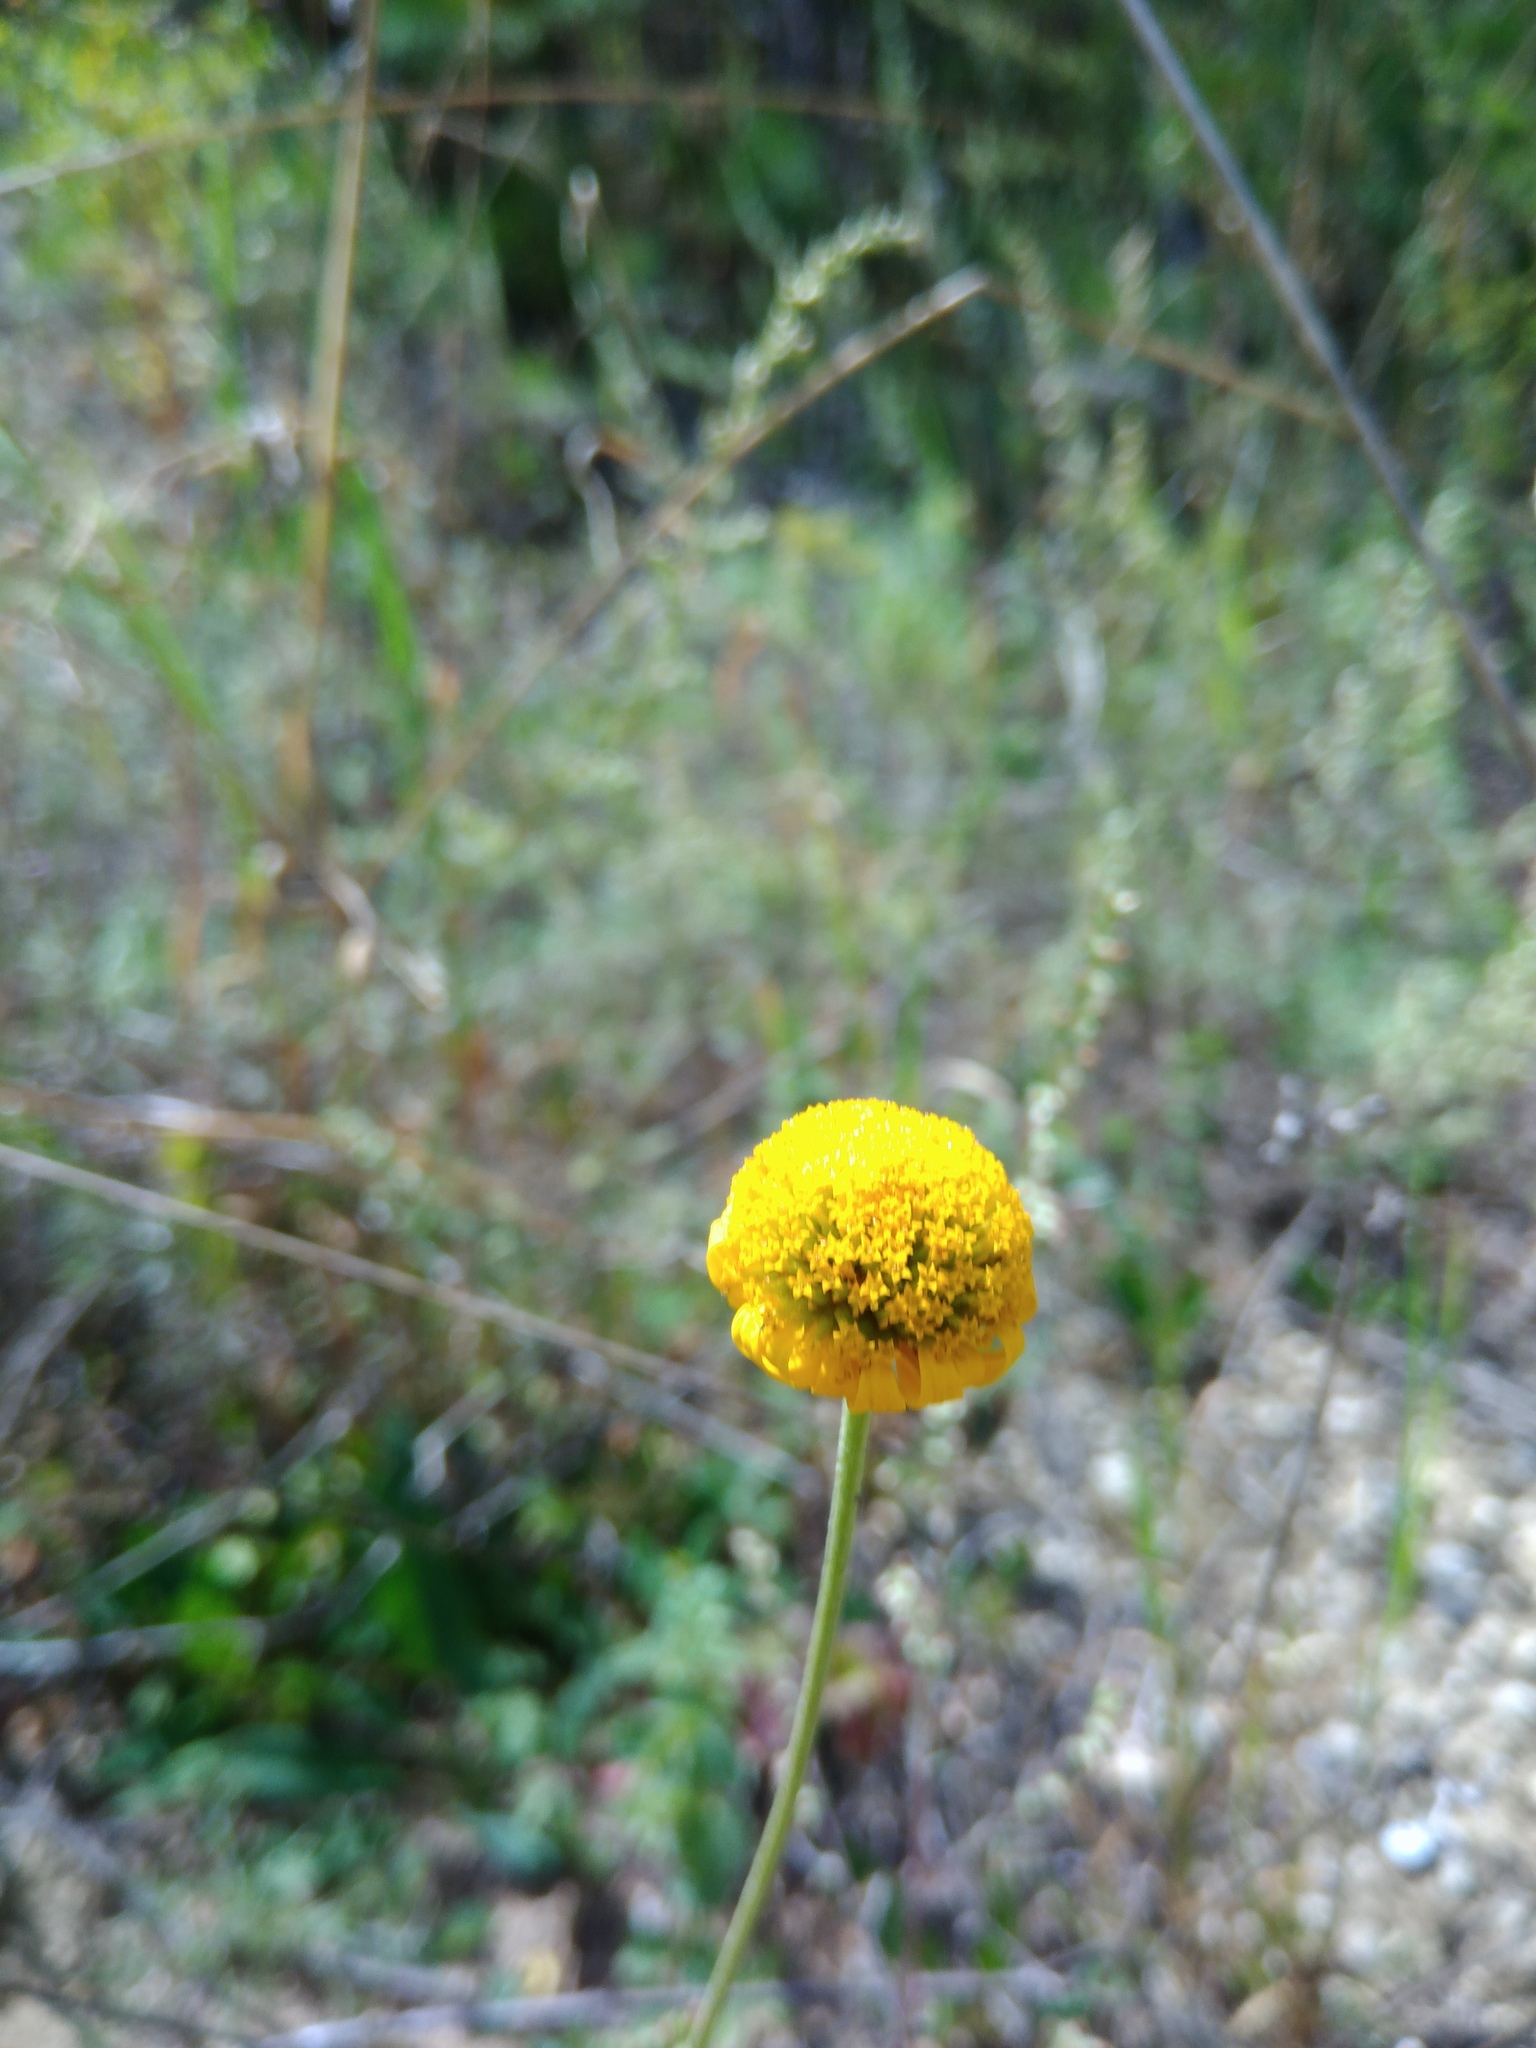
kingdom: Plantae
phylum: Tracheophyta
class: Magnoliopsida
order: Asterales
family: Asteraceae
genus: Cota
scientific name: Cota tinctoria
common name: Golden chamomile
